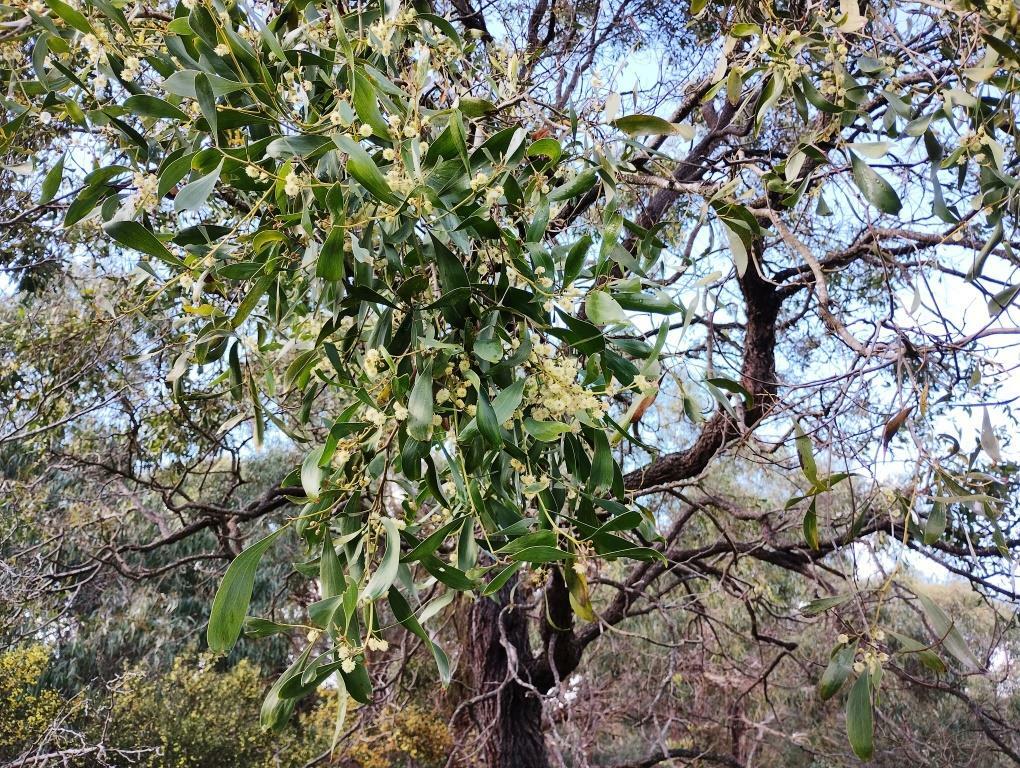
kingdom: Plantae
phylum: Tracheophyta
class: Magnoliopsida
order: Fabales
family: Fabaceae
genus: Acacia
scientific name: Acacia melanoxylon
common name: Blackwood
